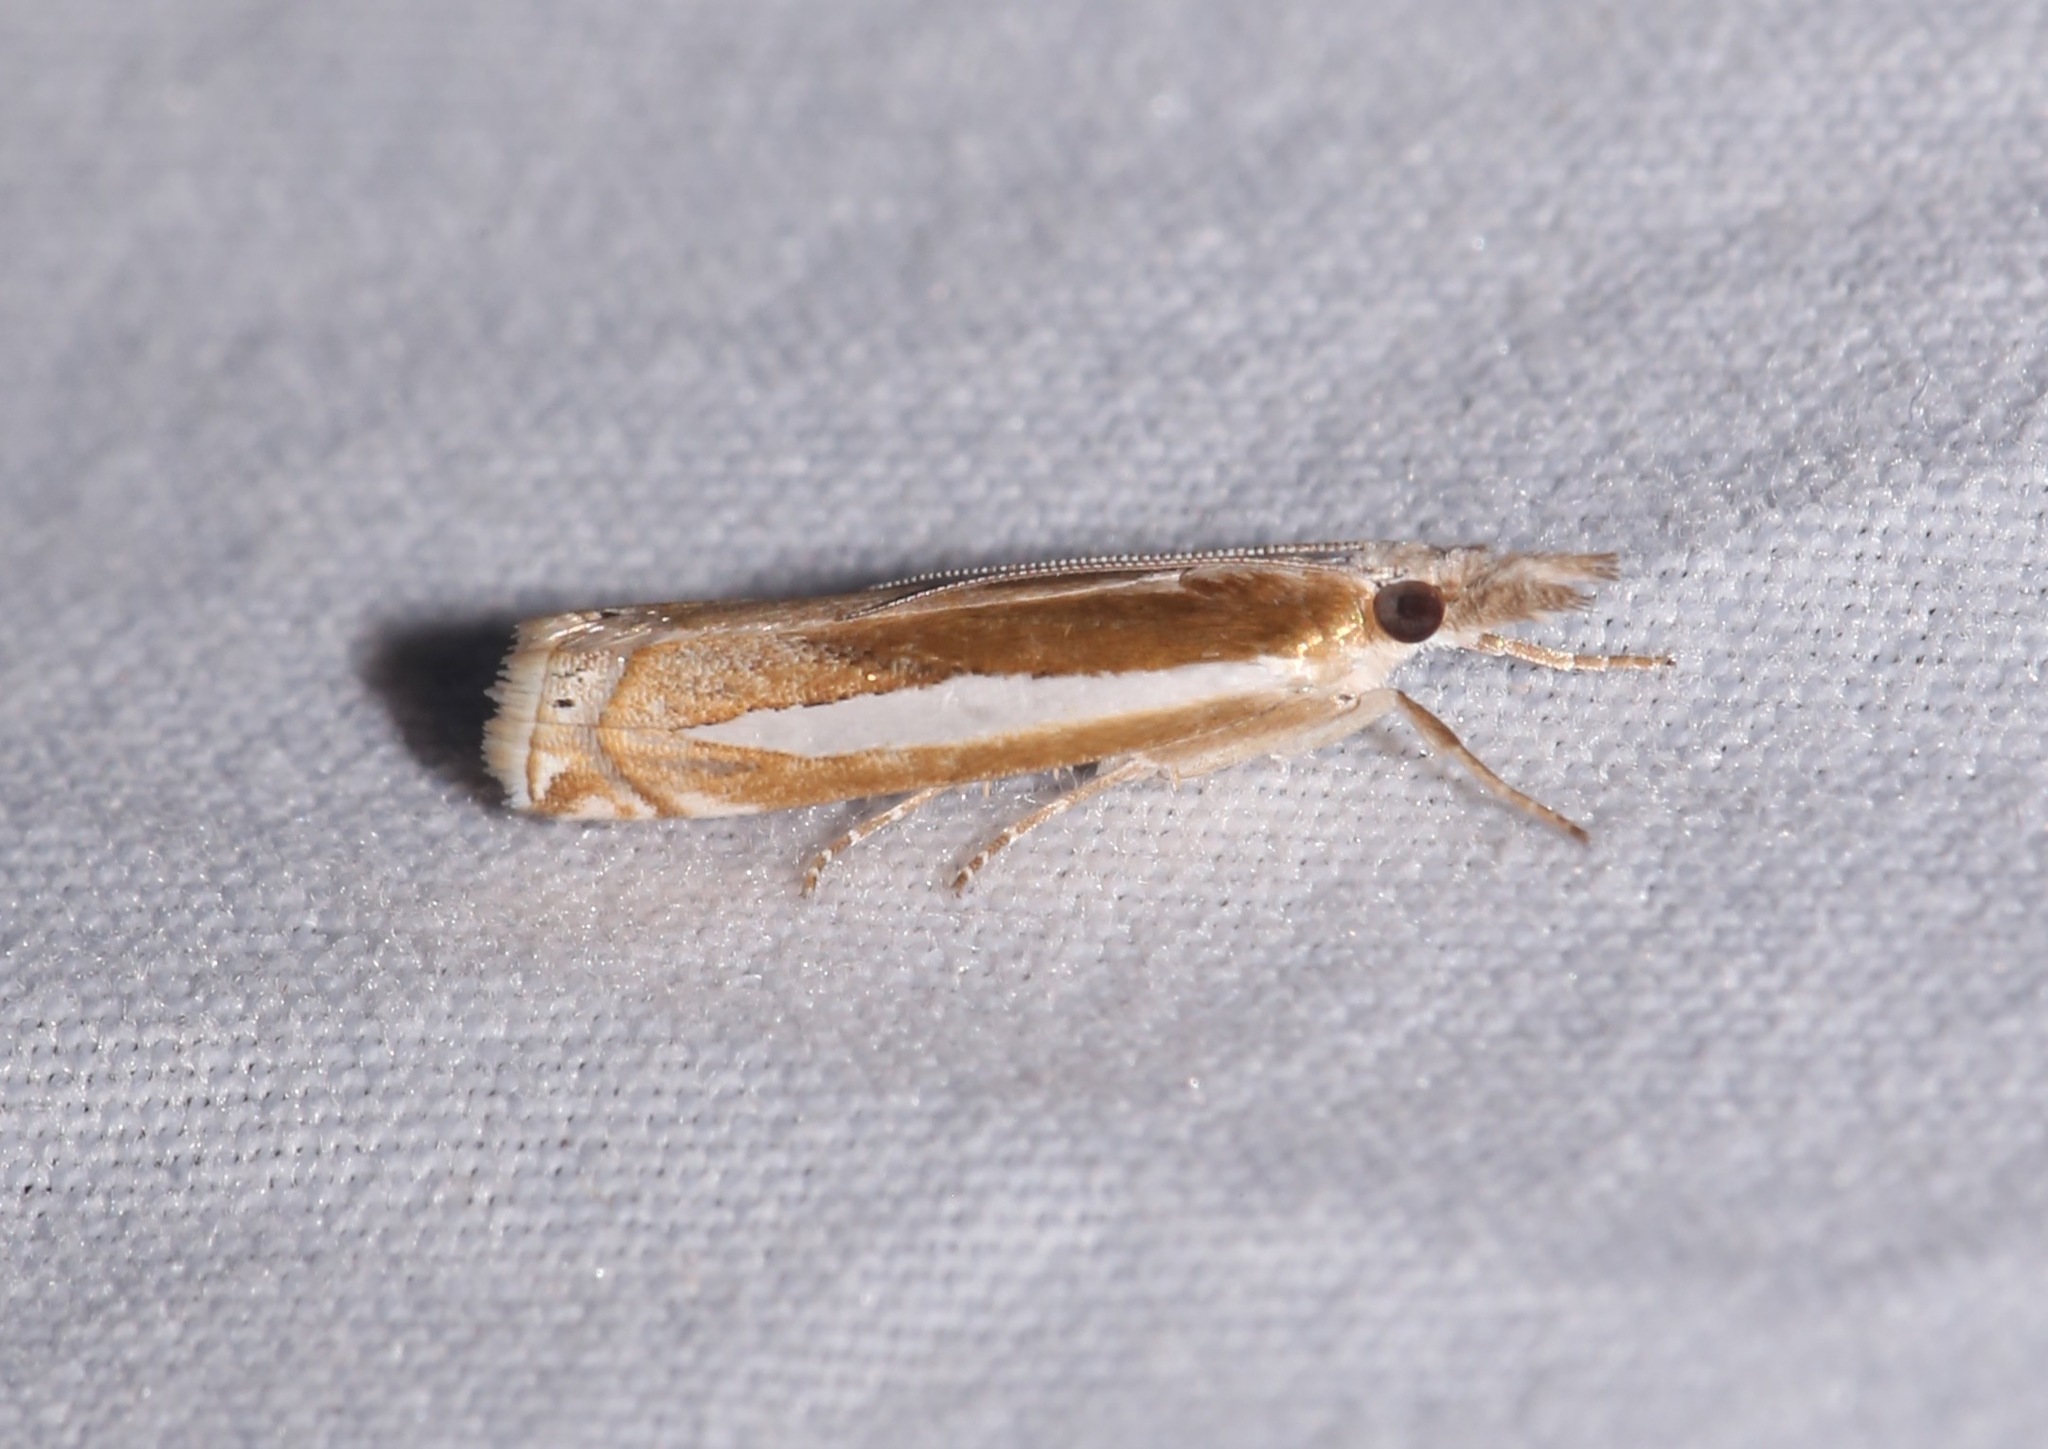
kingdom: Animalia
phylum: Arthropoda
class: Insecta
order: Lepidoptera
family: Crambidae
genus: Crambus
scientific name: Crambus praefectellus
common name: Common grass-veneer
